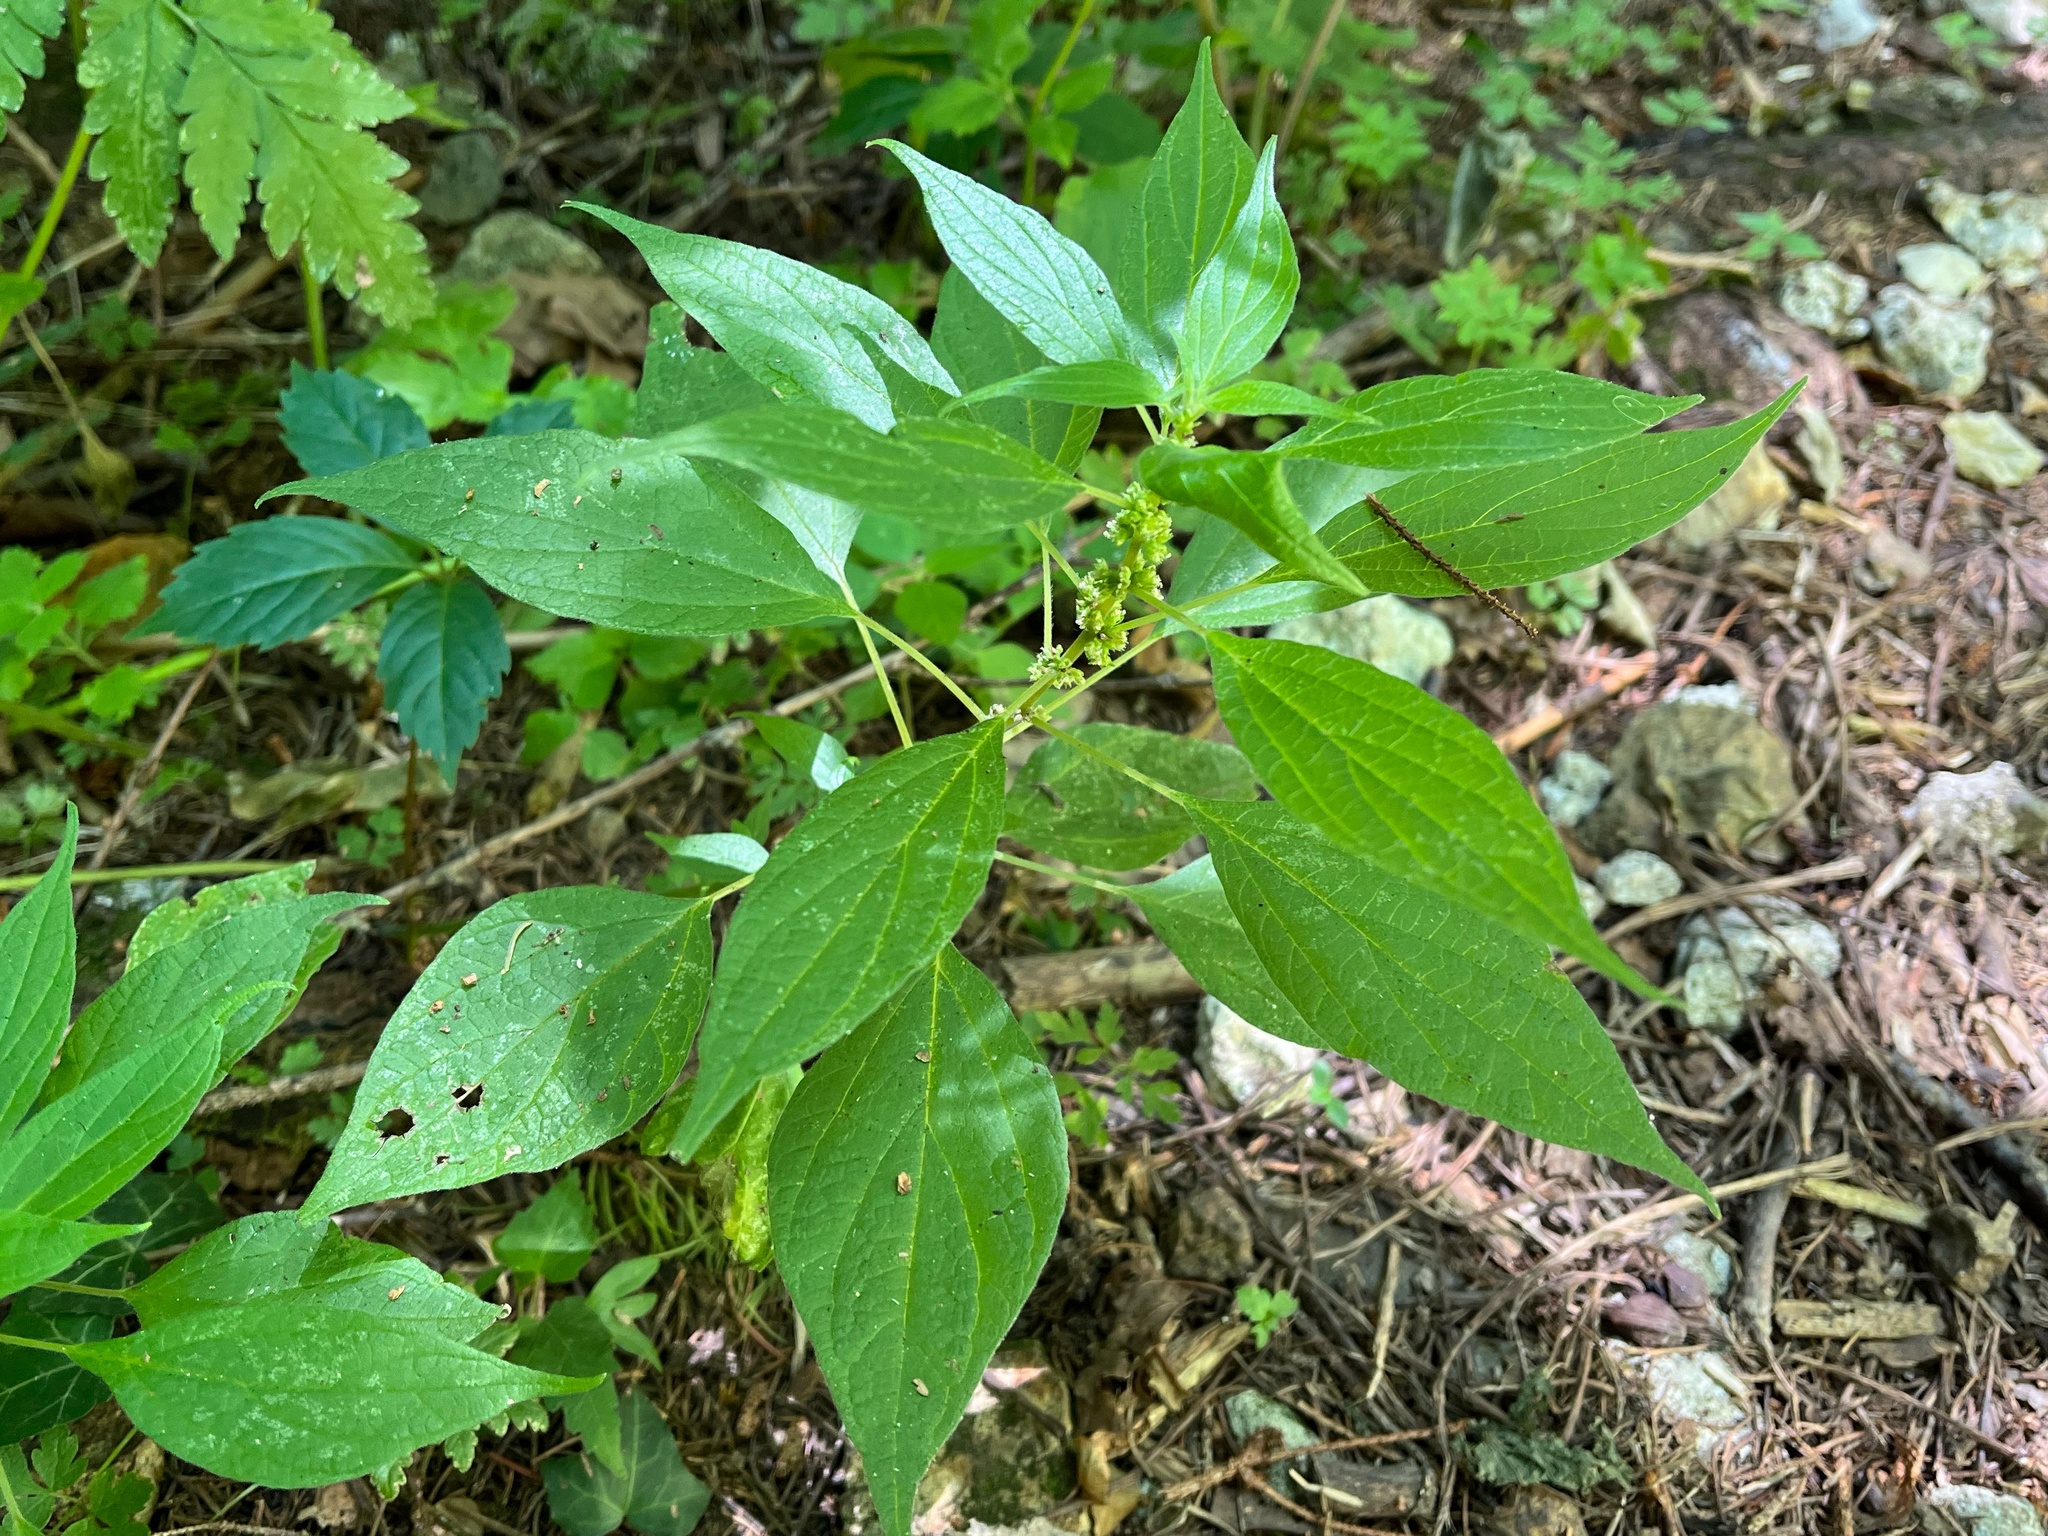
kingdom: Plantae
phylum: Tracheophyta
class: Magnoliopsida
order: Rosales
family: Urticaceae
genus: Parietaria
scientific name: Parietaria officinalis
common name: Eastern pellitory-of-the-wall
